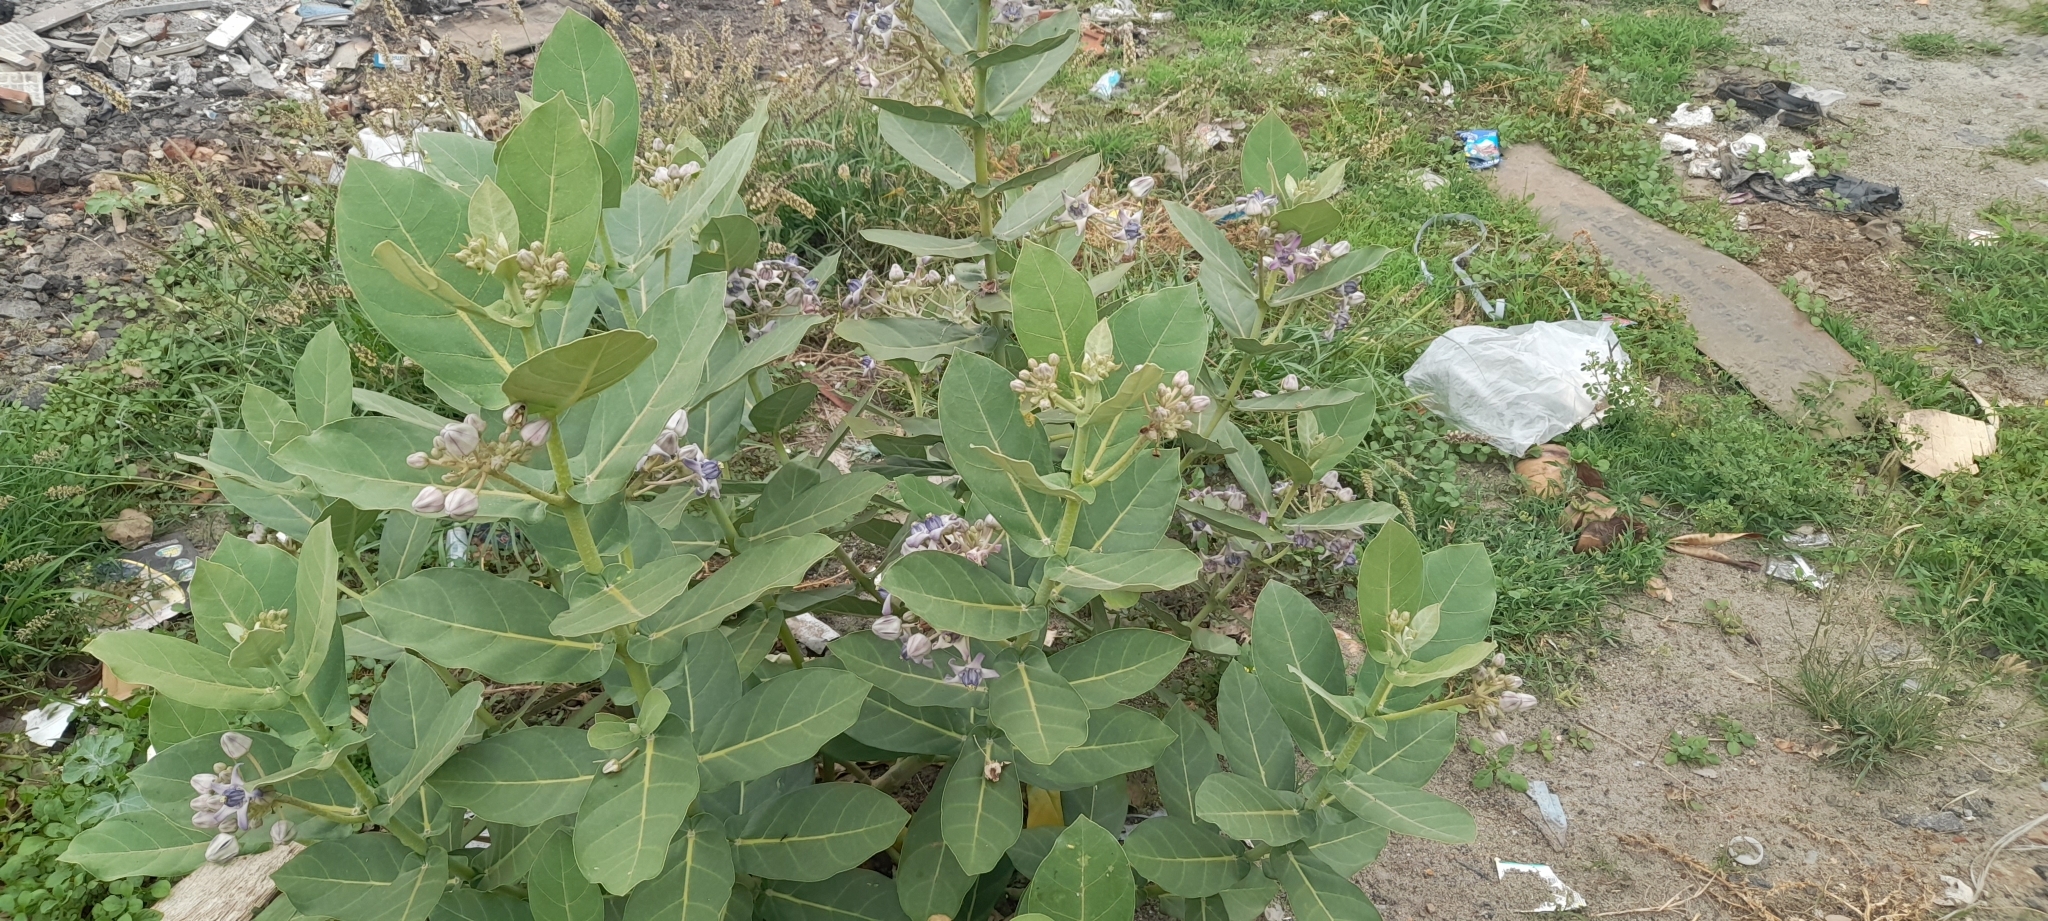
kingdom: Plantae
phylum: Tracheophyta
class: Magnoliopsida
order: Gentianales
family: Apocynaceae
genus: Calotropis
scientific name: Calotropis gigantea
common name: Crown flower
